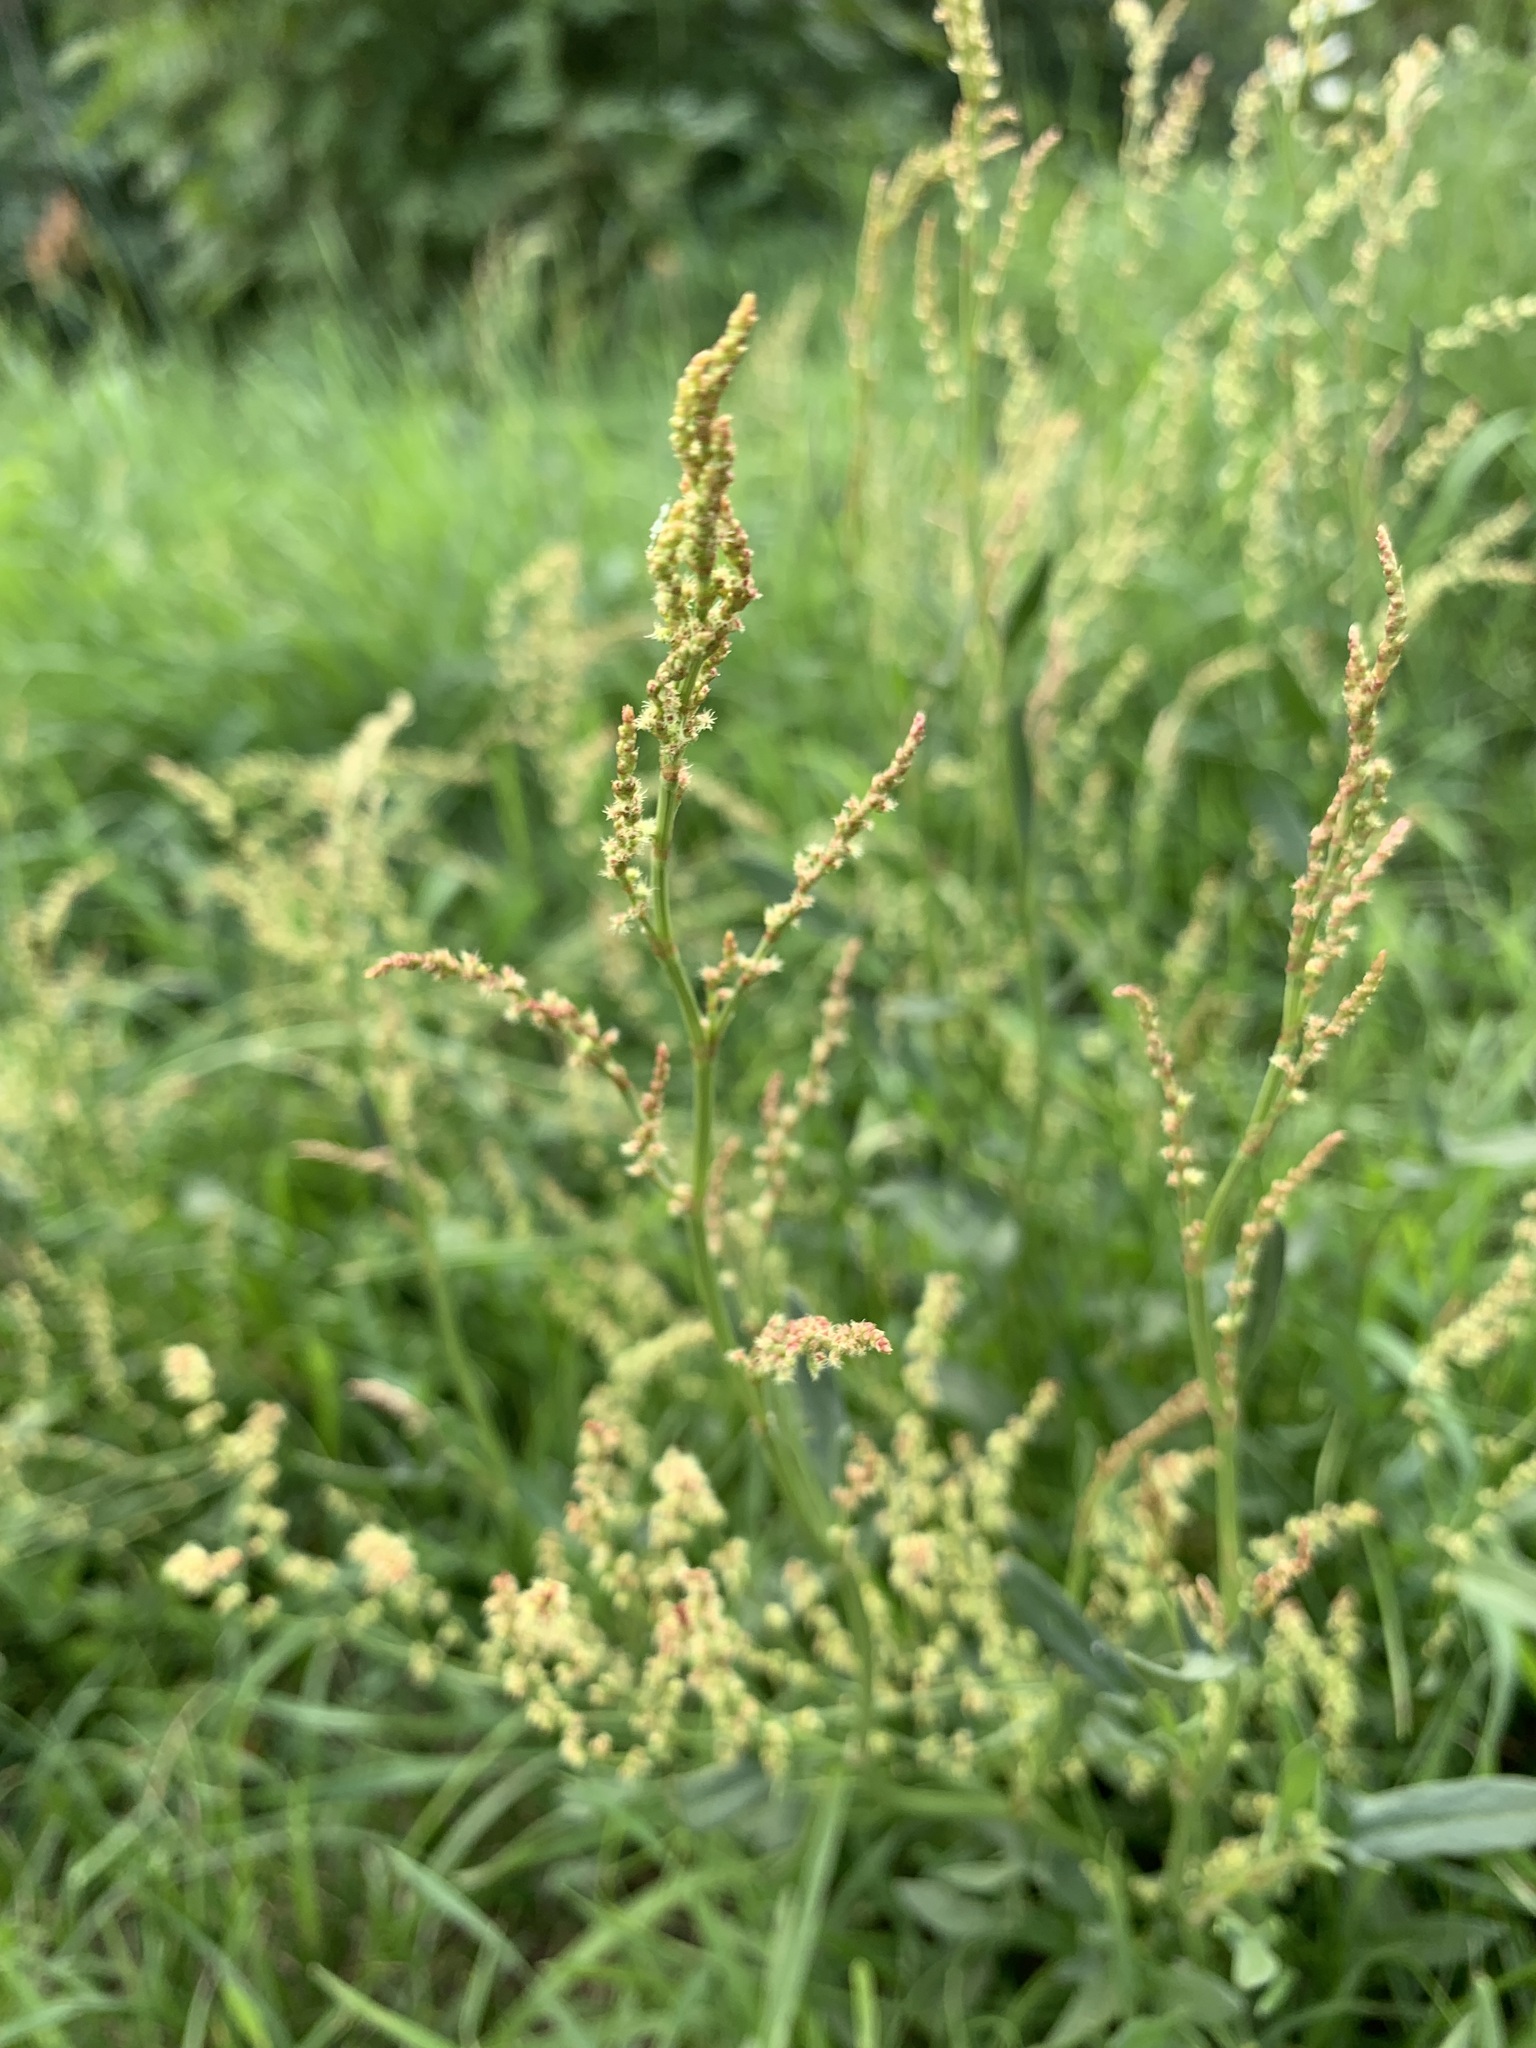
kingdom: Plantae
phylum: Tracheophyta
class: Magnoliopsida
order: Caryophyllales
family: Polygonaceae
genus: Rumex
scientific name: Rumex acetosella
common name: Common sheep sorrel
